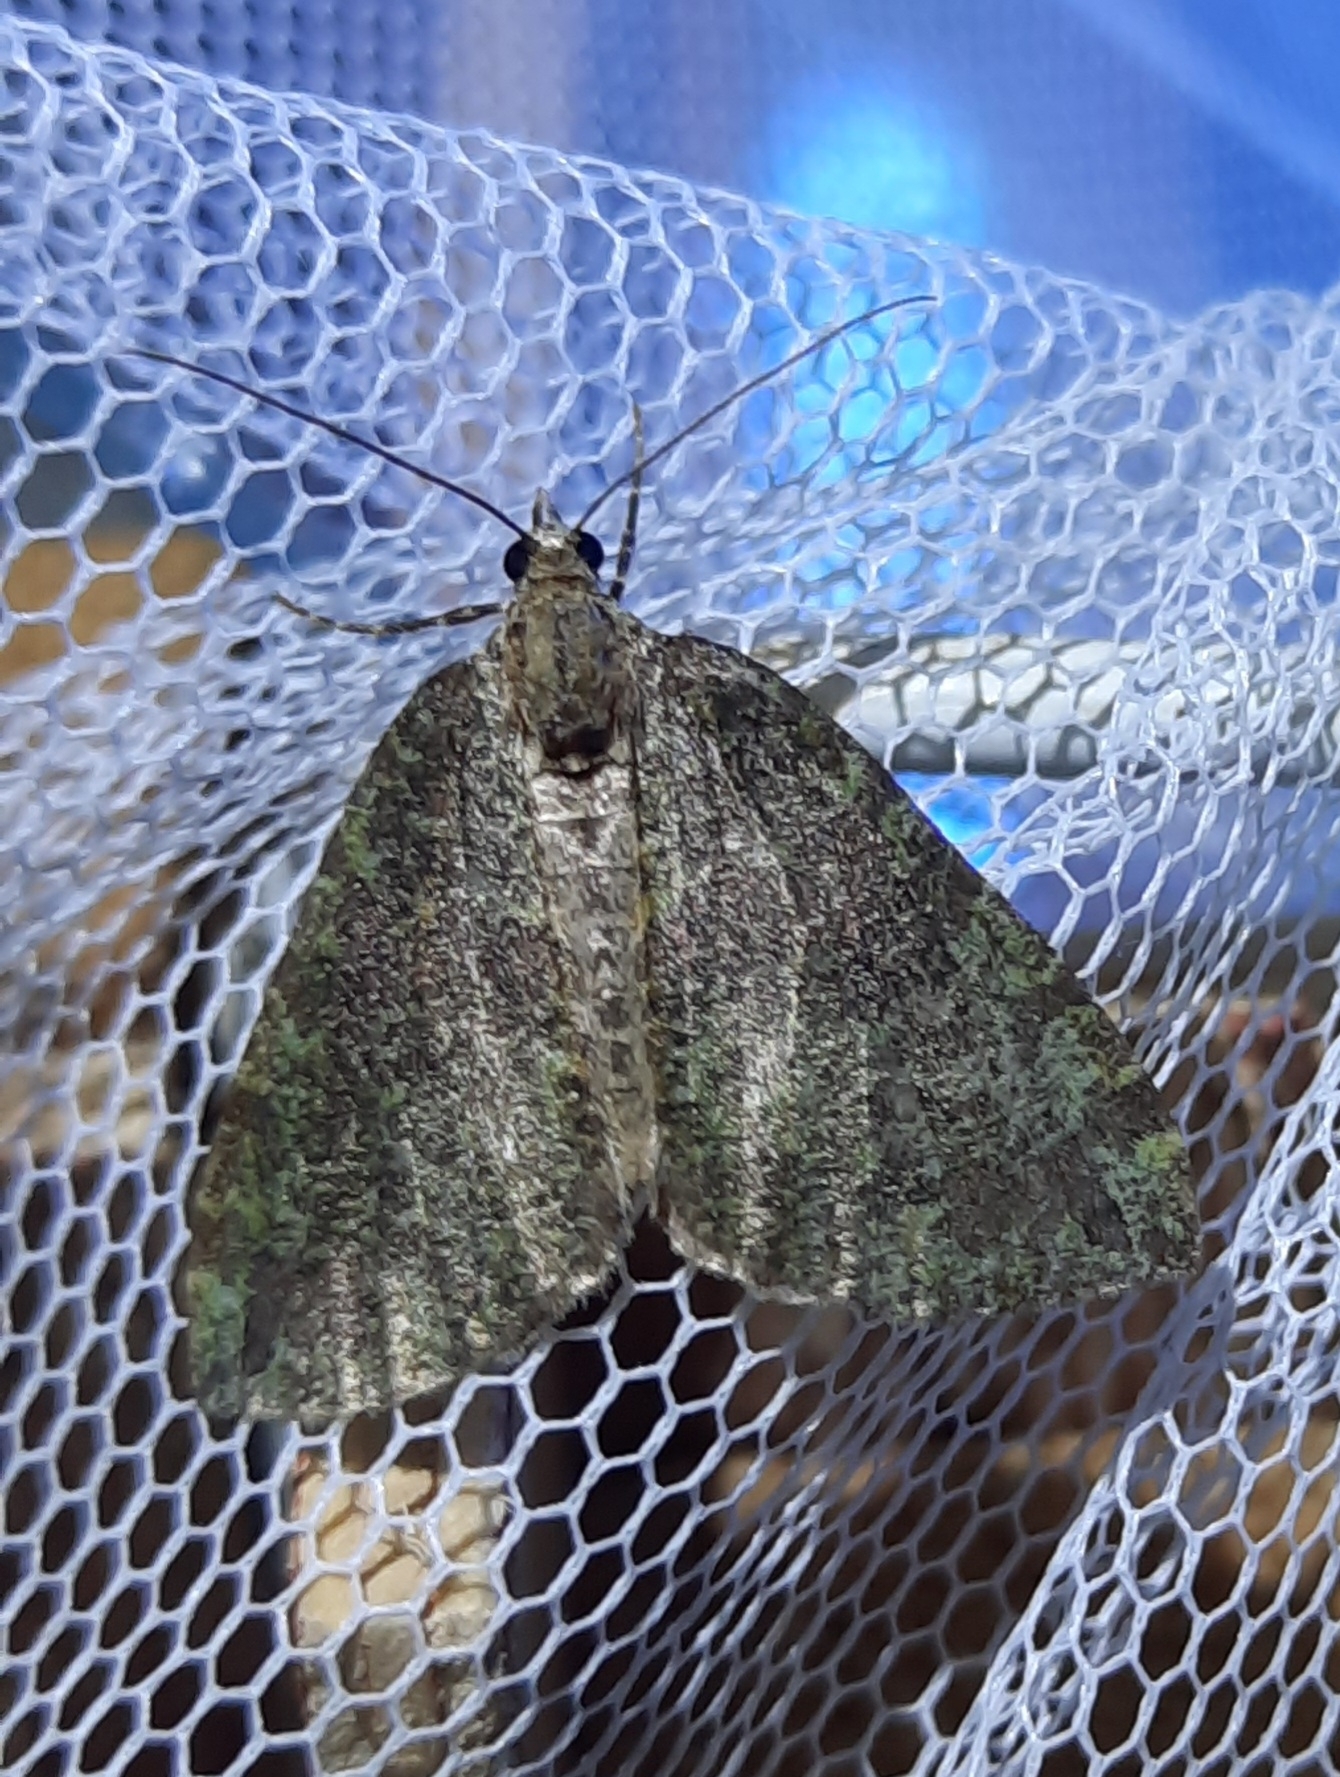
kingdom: Animalia
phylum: Arthropoda
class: Insecta
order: Lepidoptera
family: Geometridae
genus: Hydriomena
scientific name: Hydriomena furcata
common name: July highflyer
